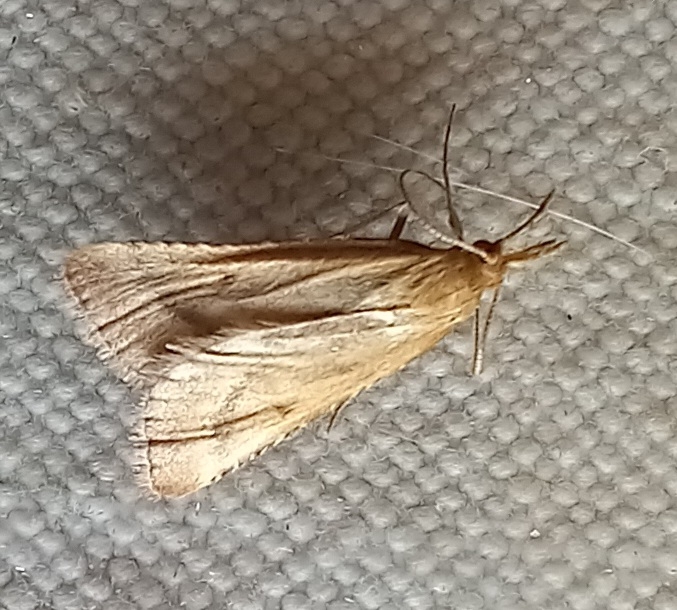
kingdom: Animalia
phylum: Arthropoda
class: Insecta
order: Lepidoptera
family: Pyralidae
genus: Synaphe
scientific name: Synaphe punctalis
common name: Long-legged tabby
